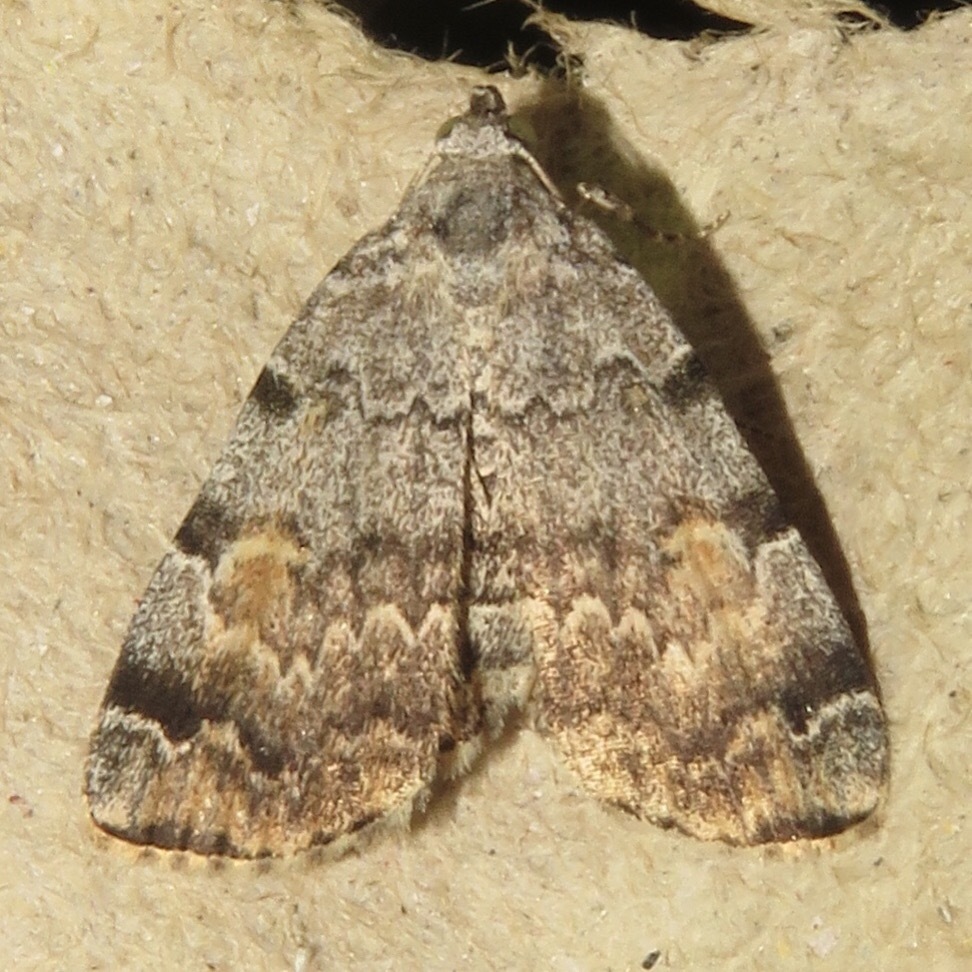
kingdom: Animalia
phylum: Arthropoda
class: Insecta
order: Lepidoptera
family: Erebidae
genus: Idia
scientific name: Idia americalis
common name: American idia moth
